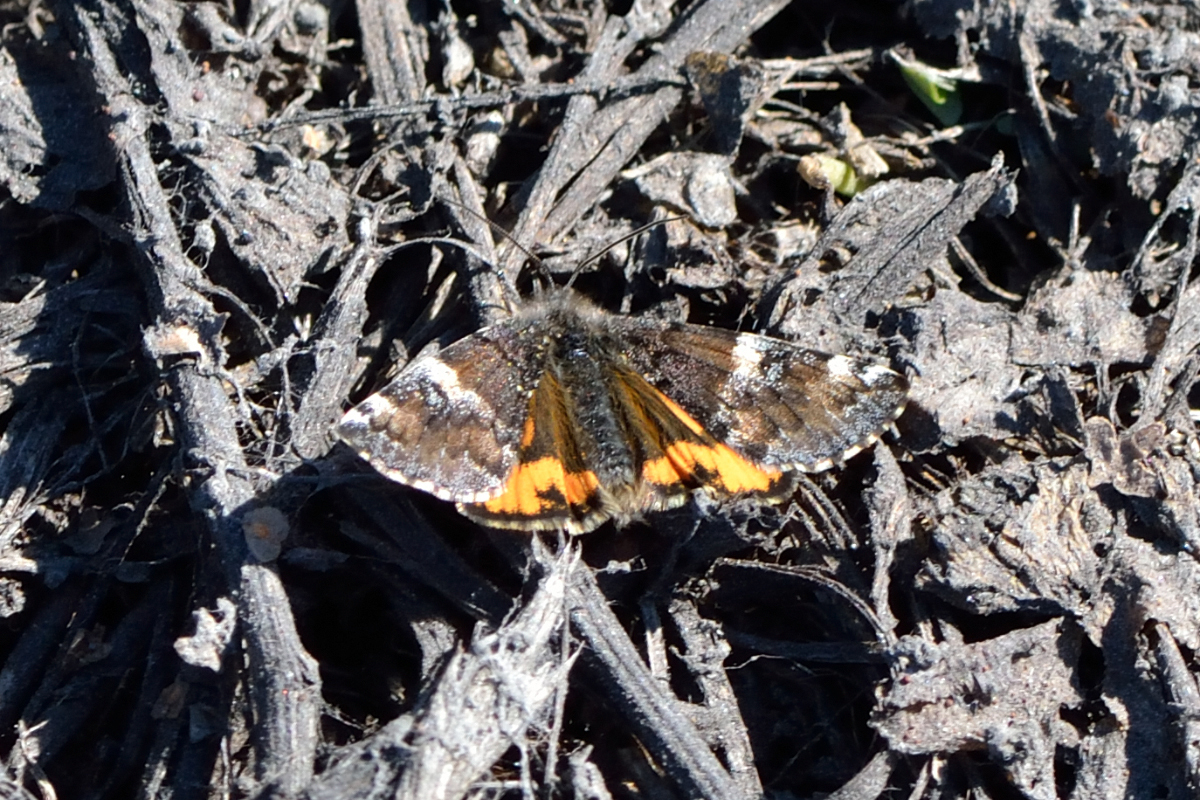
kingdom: Animalia
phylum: Arthropoda
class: Insecta
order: Lepidoptera
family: Geometridae
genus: Archiearis
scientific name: Archiearis parthenias
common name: Orange underwing
